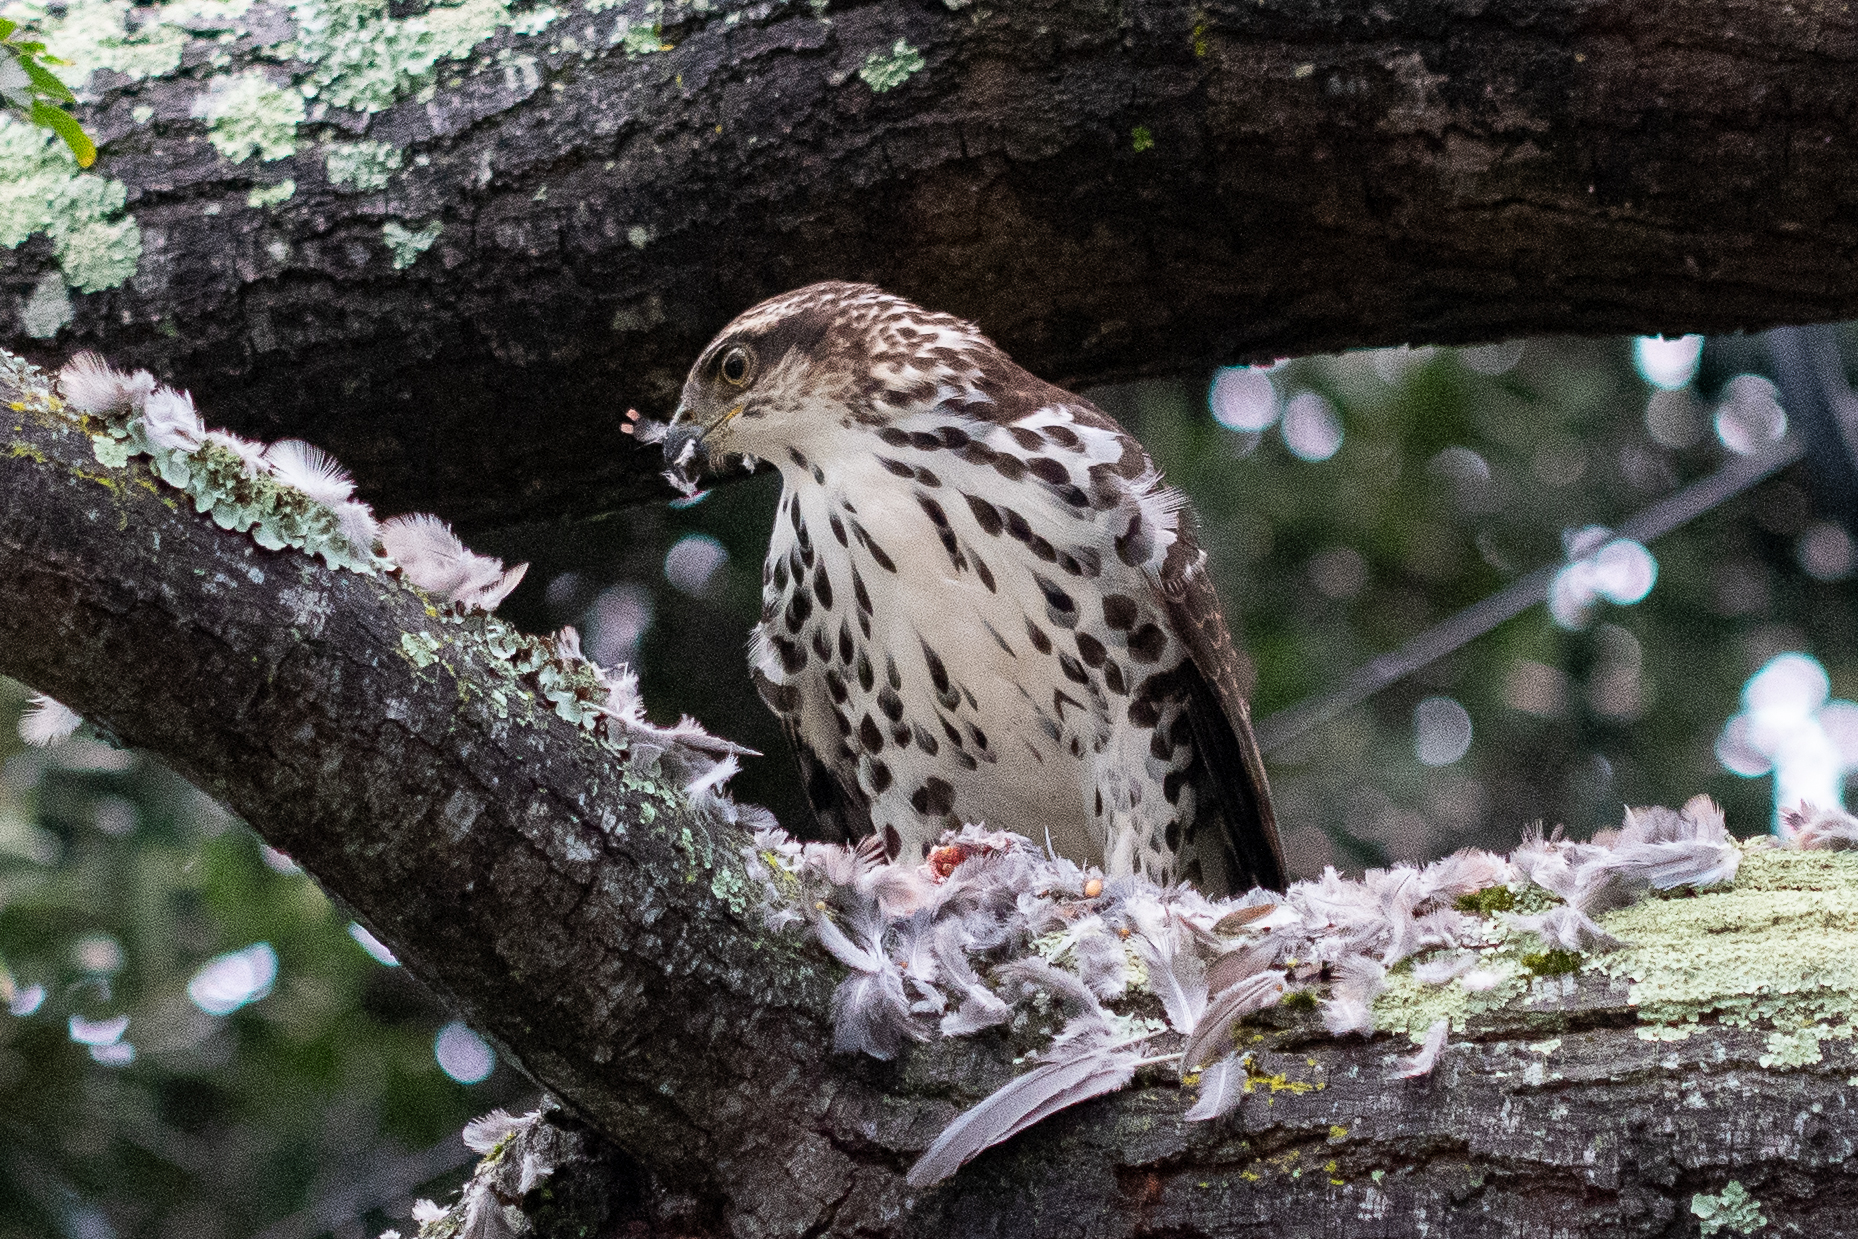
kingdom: Animalia
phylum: Chordata
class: Aves
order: Accipitriformes
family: Accipitridae
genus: Accipiter
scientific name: Accipiter tachiro
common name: African goshawk
